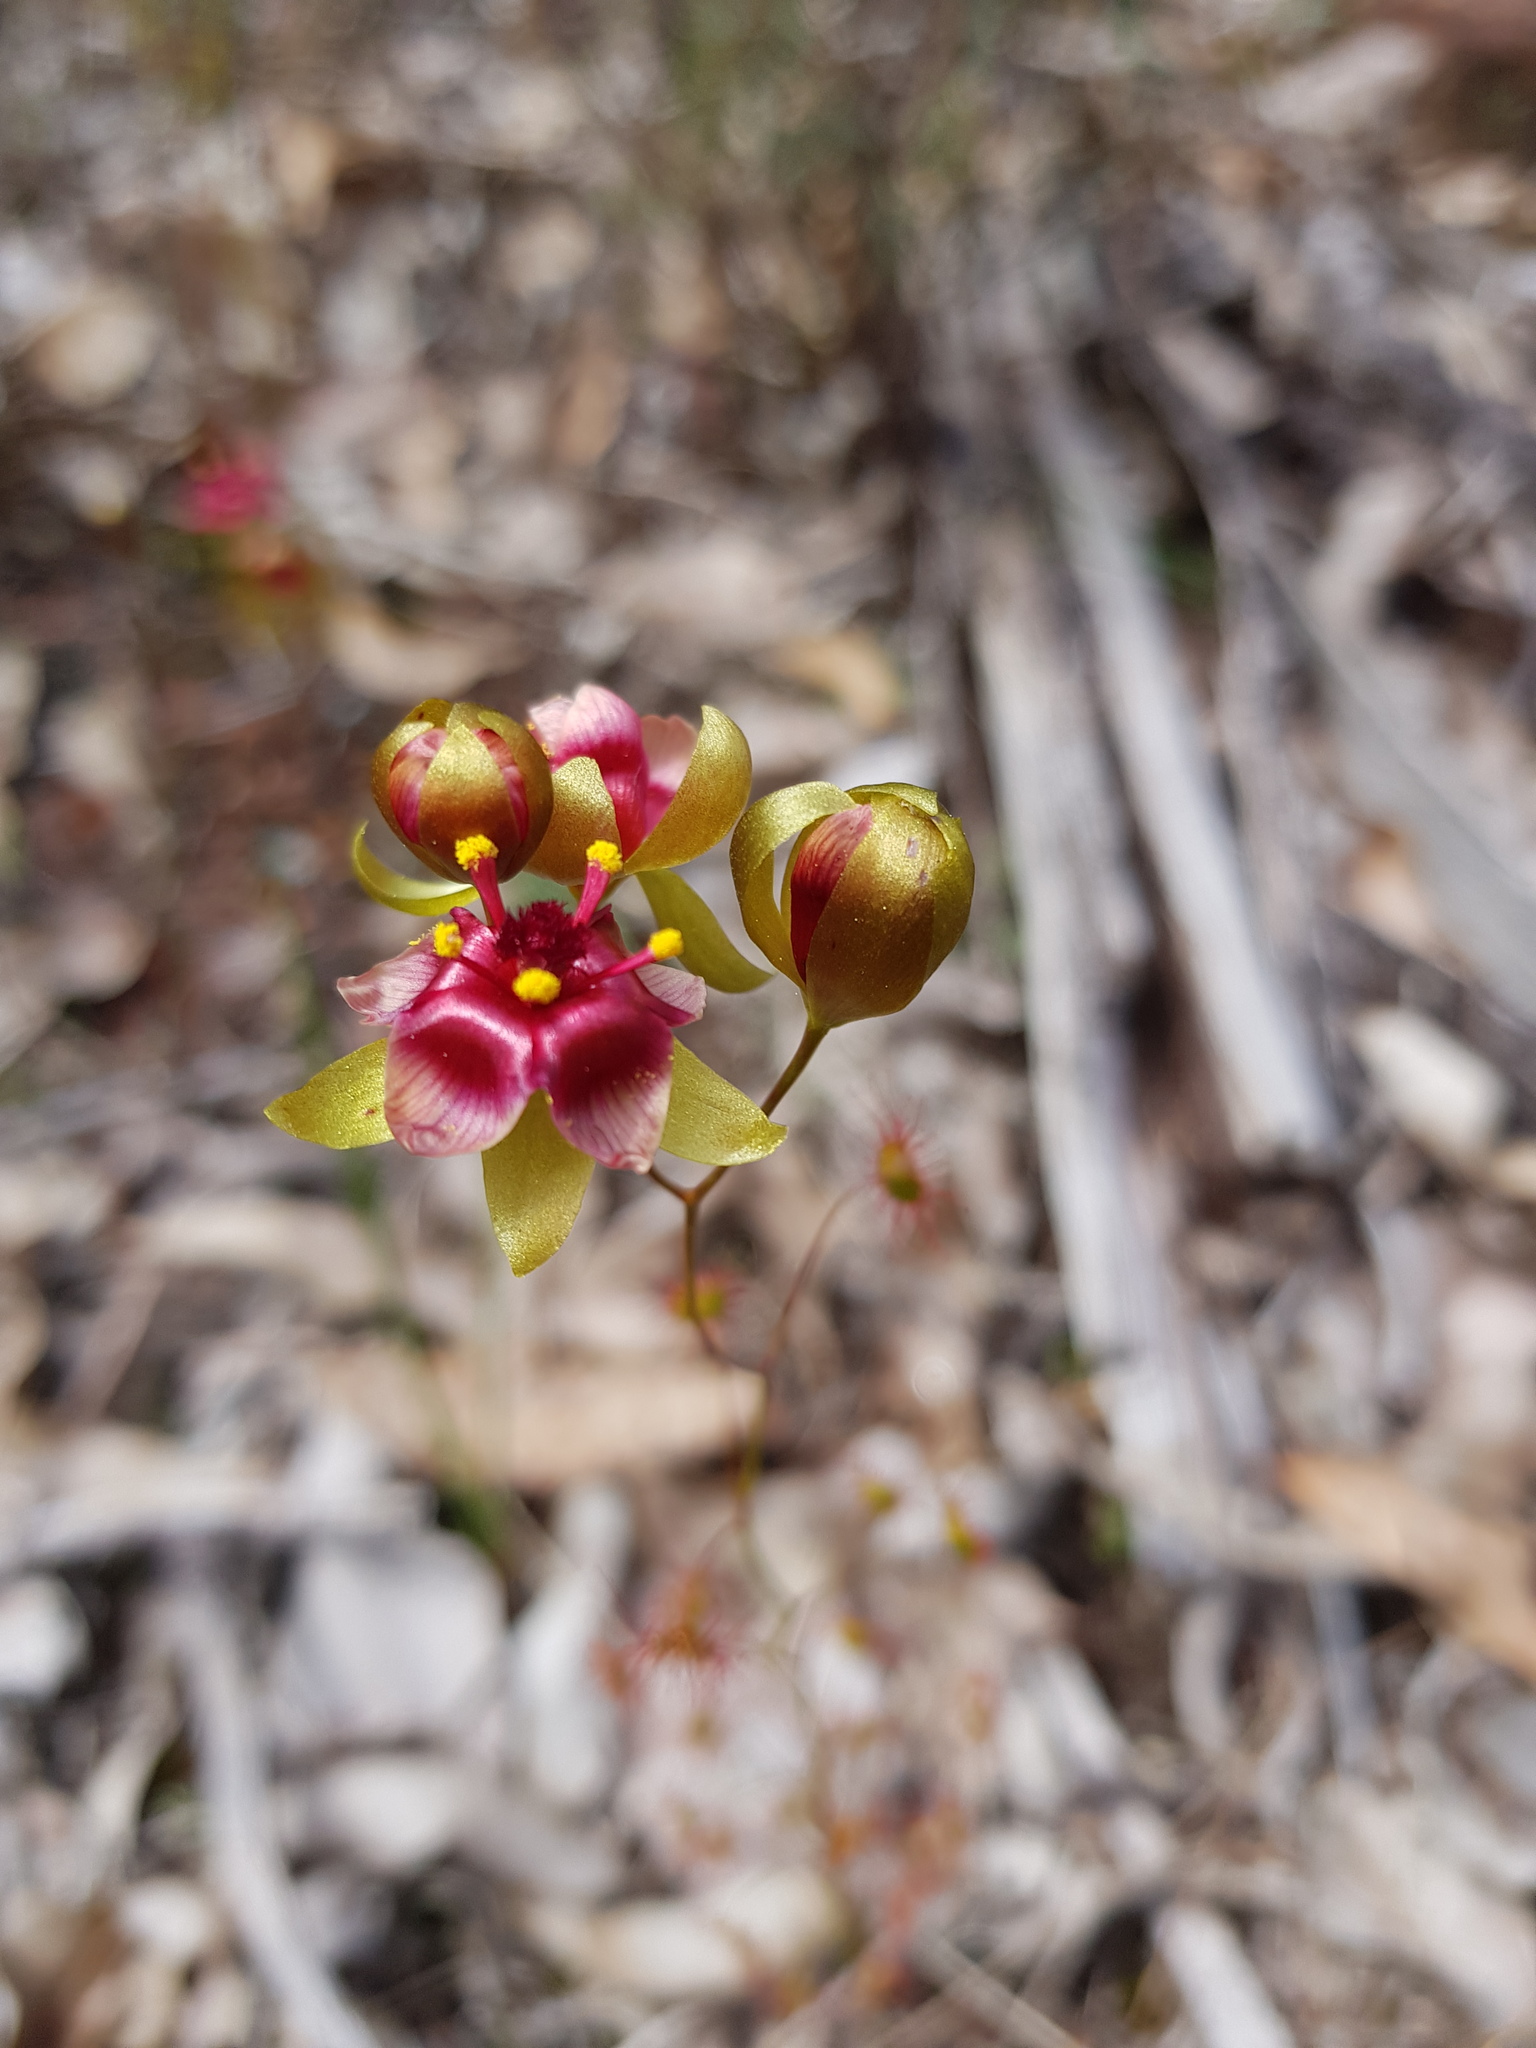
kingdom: Plantae
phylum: Tracheophyta
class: Magnoliopsida
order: Caryophyllales
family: Droseraceae
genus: Drosera
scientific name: Drosera microphylla
